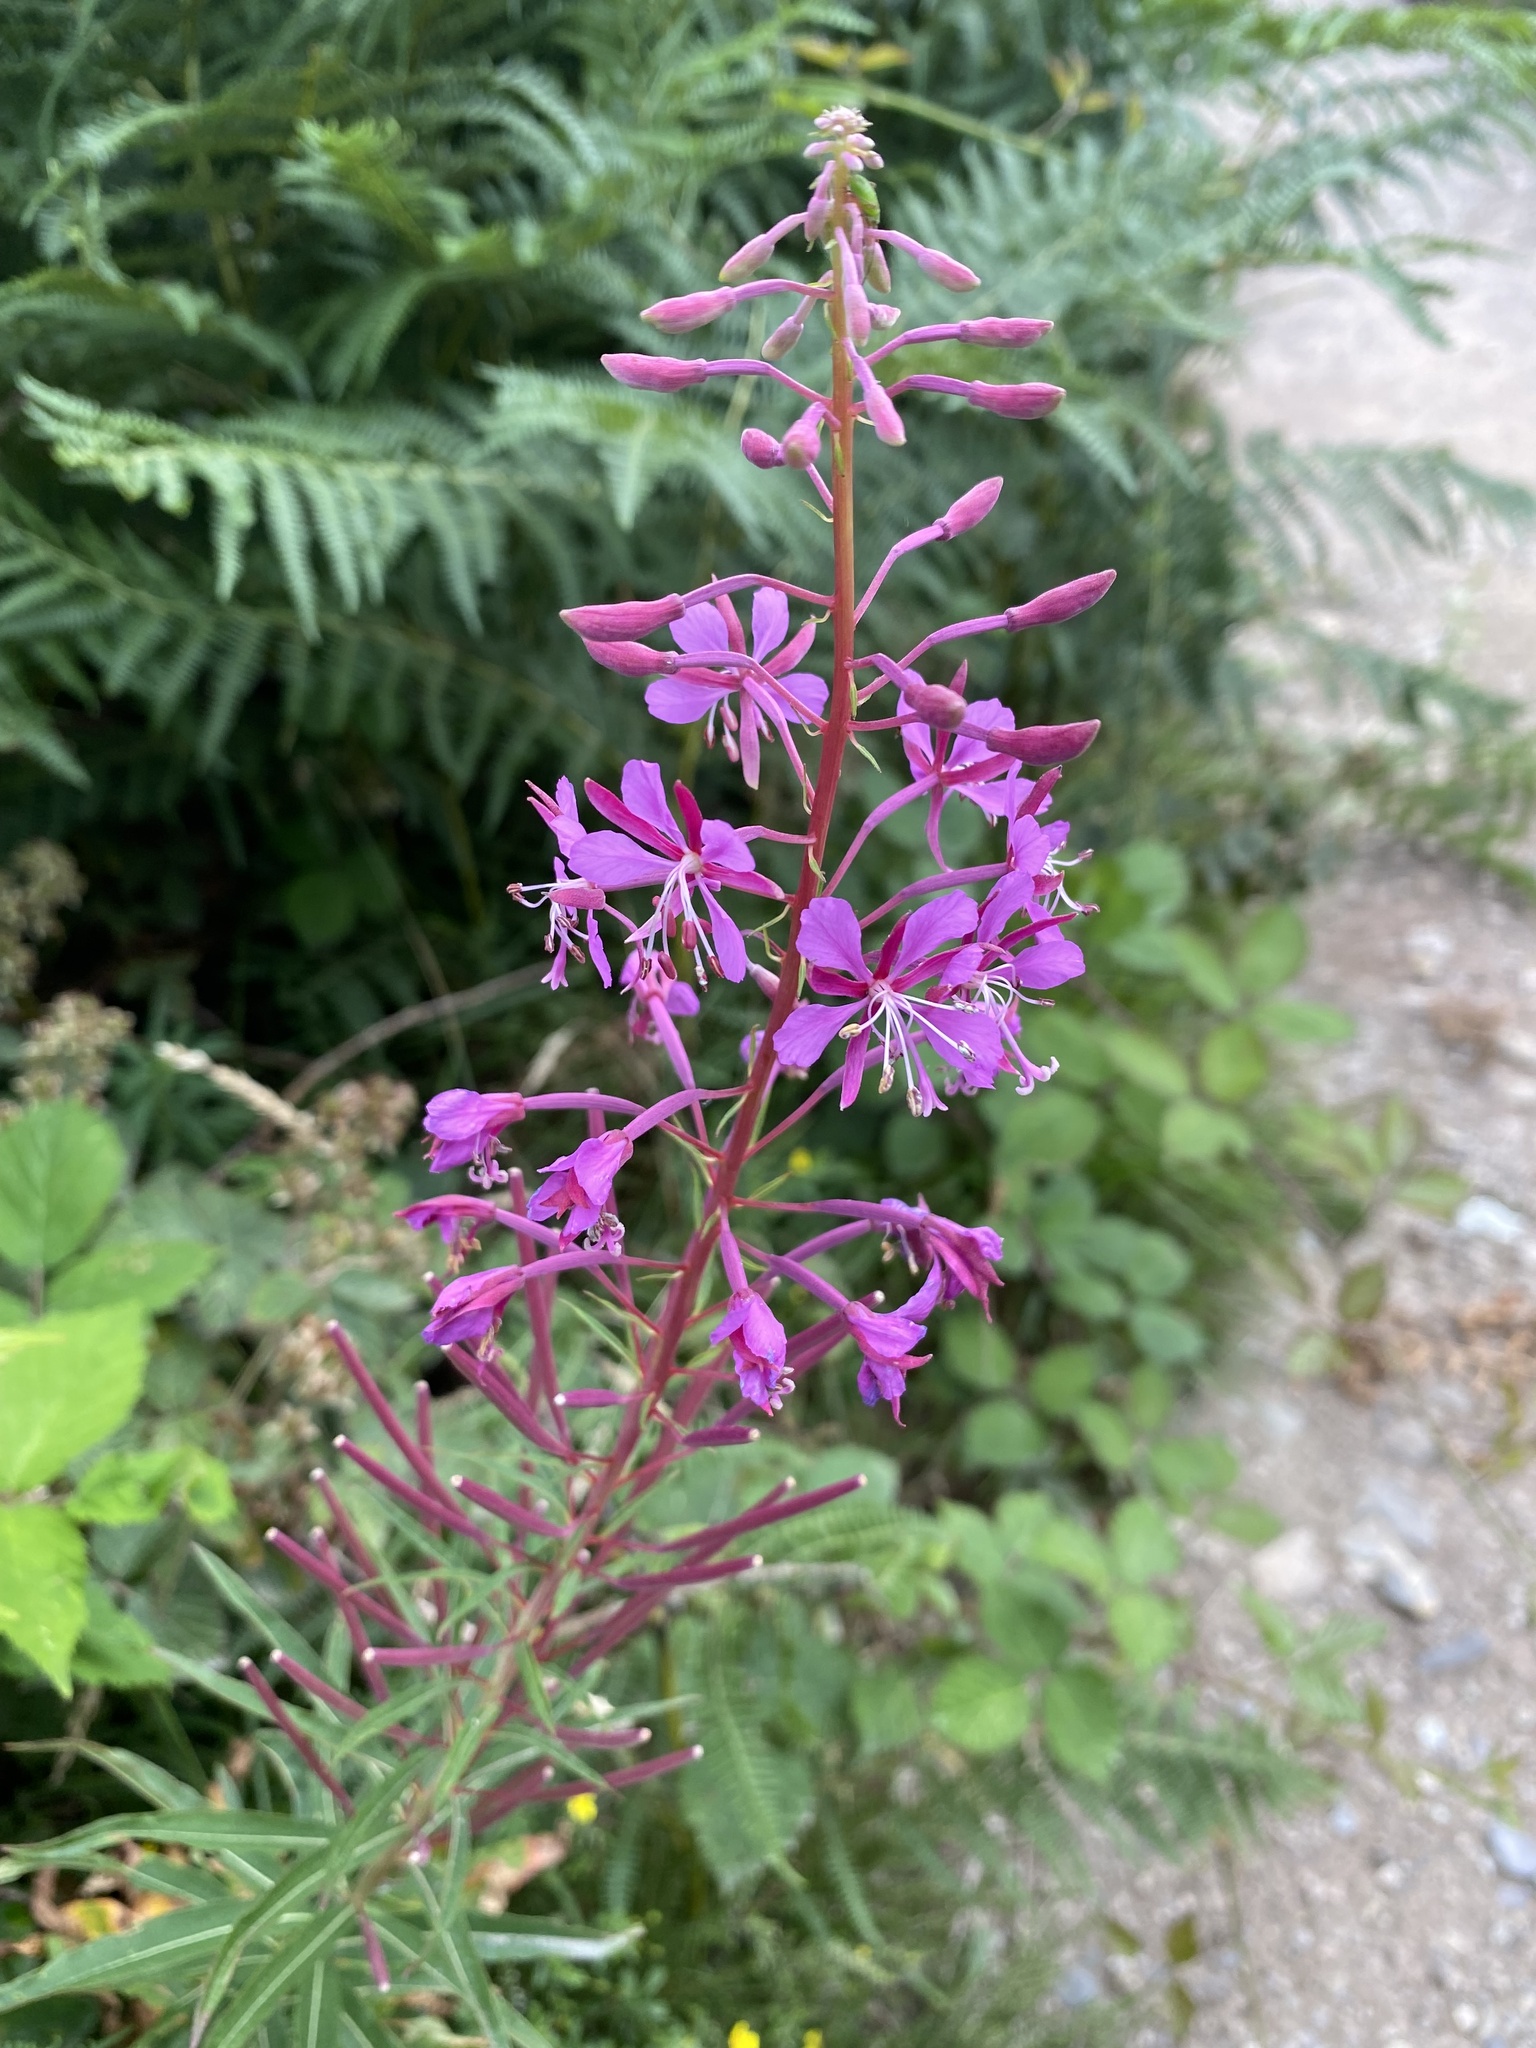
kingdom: Plantae
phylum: Tracheophyta
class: Magnoliopsida
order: Myrtales
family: Onagraceae
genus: Chamaenerion
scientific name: Chamaenerion angustifolium
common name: Fireweed
